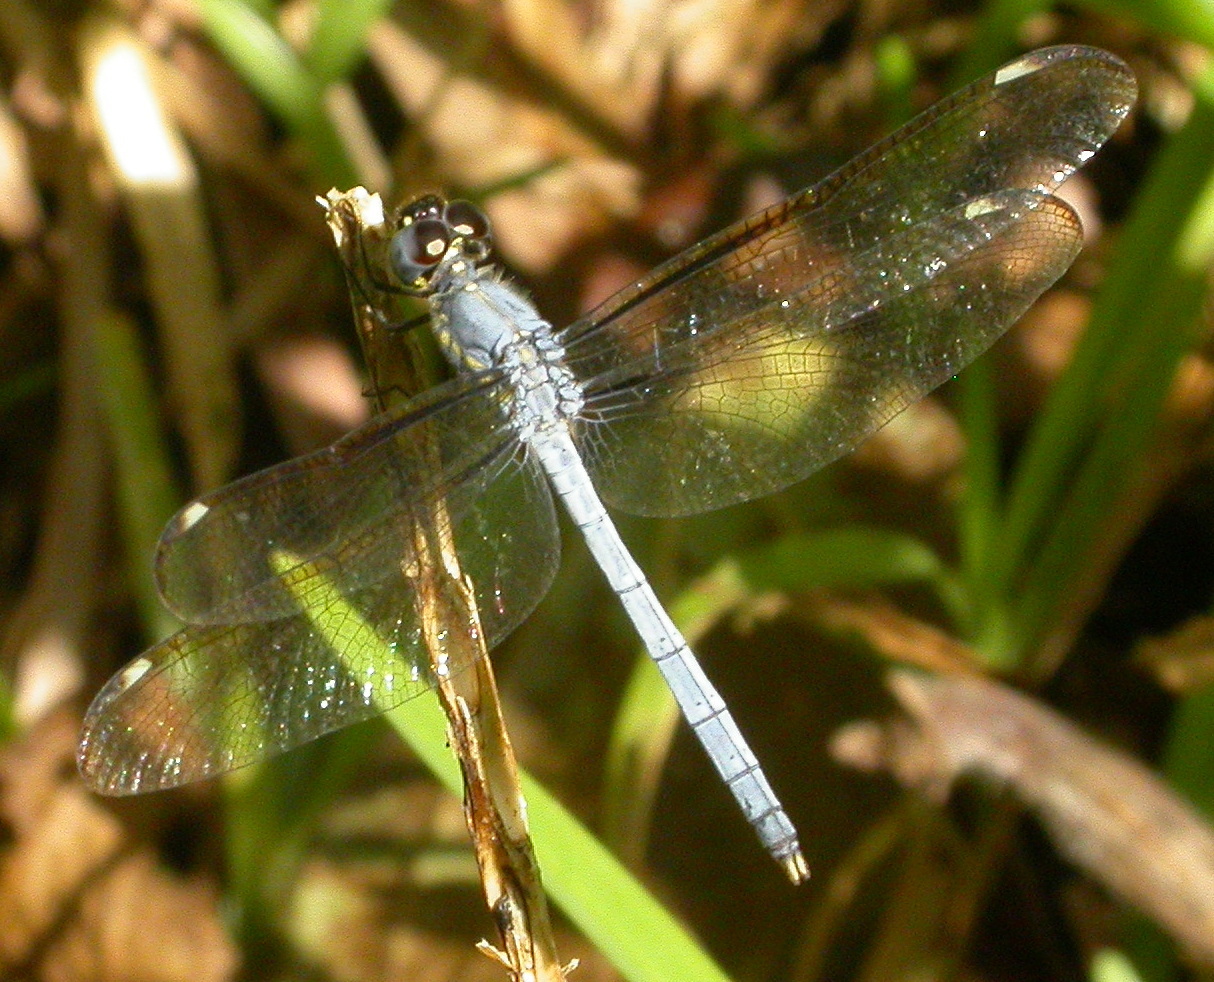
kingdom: Animalia
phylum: Arthropoda
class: Insecta
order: Odonata
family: Libellulidae
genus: Hemistigma
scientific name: Hemistigma affine
